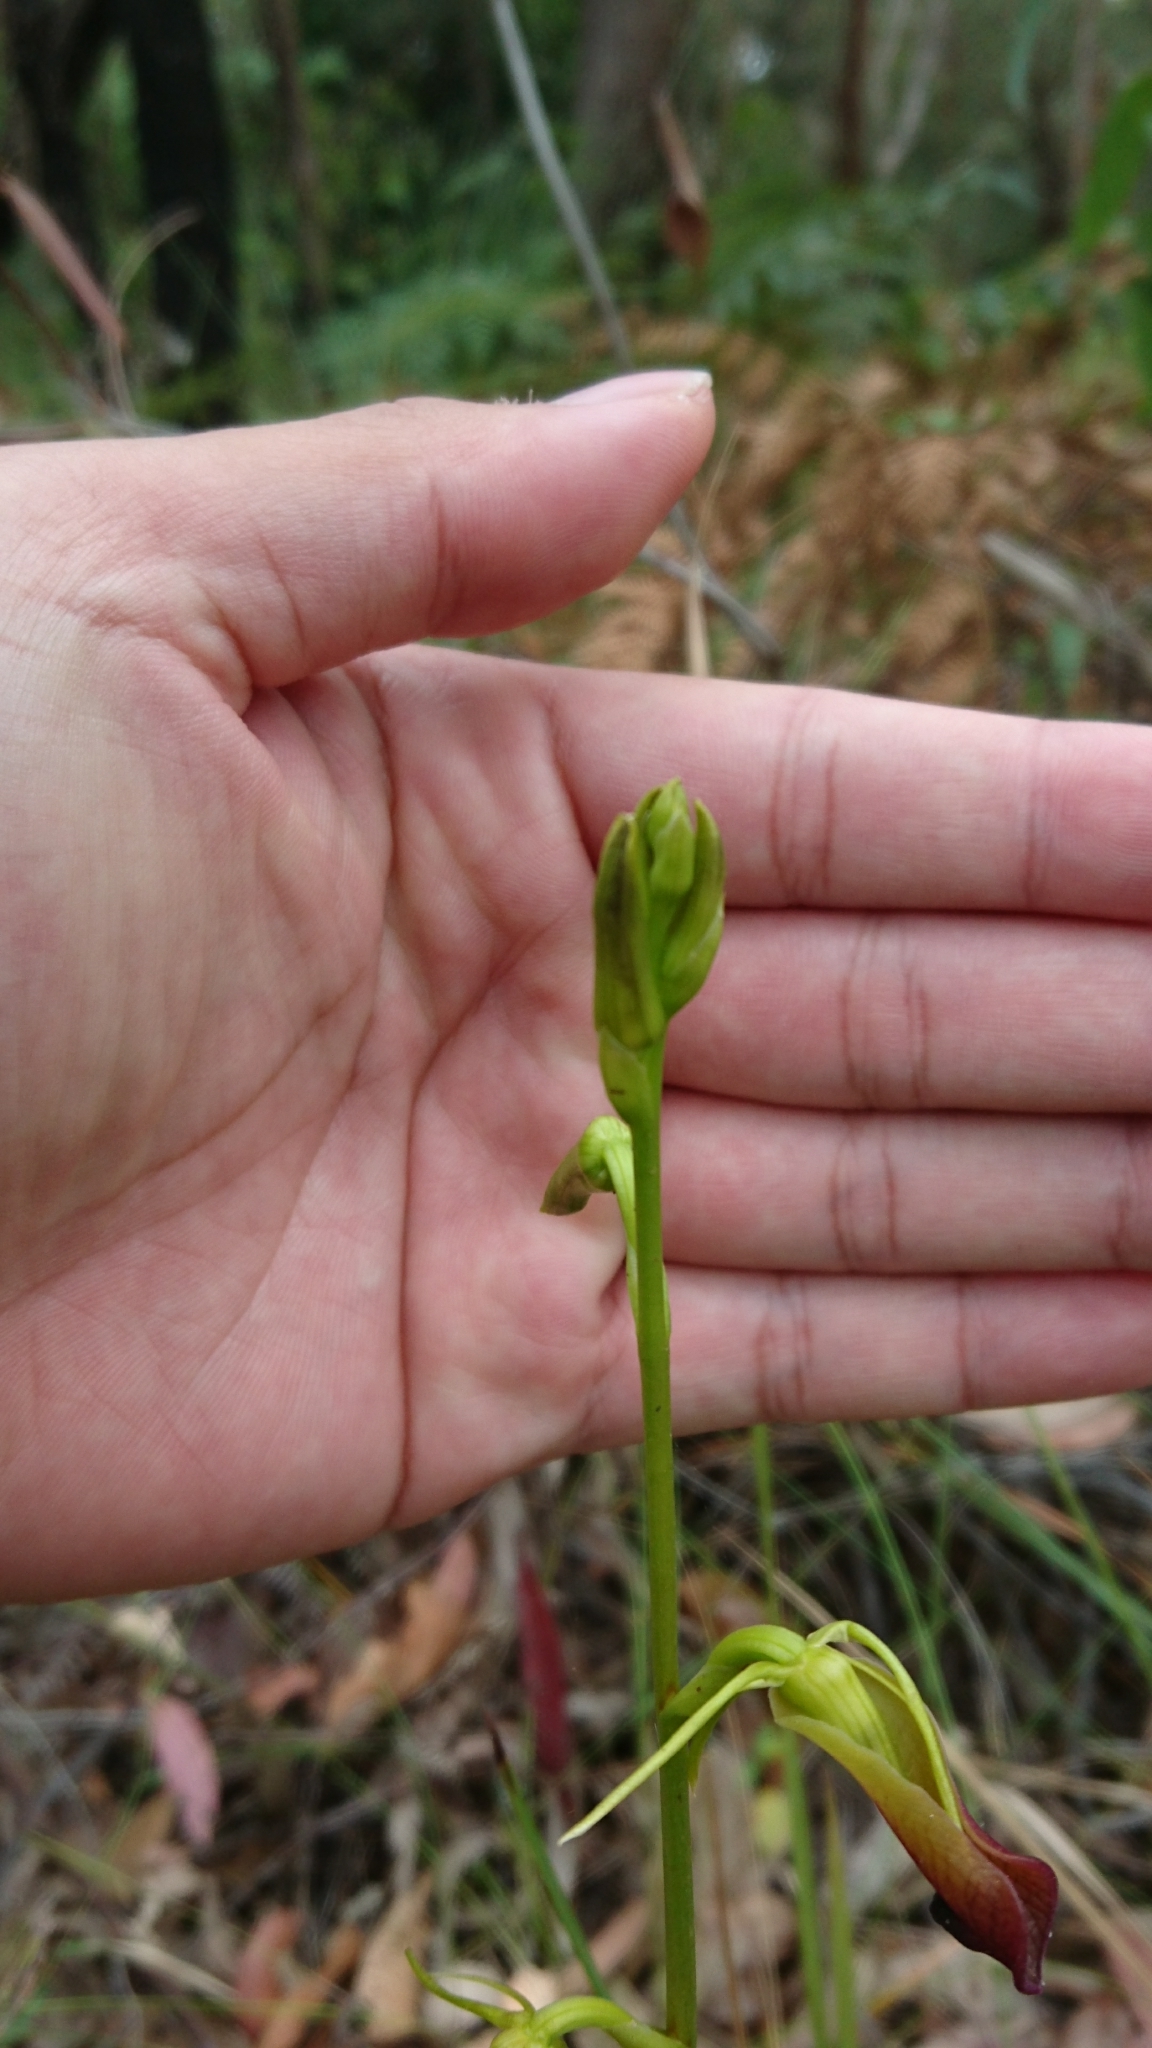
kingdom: Plantae
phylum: Tracheophyta
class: Liliopsida
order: Asparagales
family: Orchidaceae
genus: Cryptostylis
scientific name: Cryptostylis subulata
